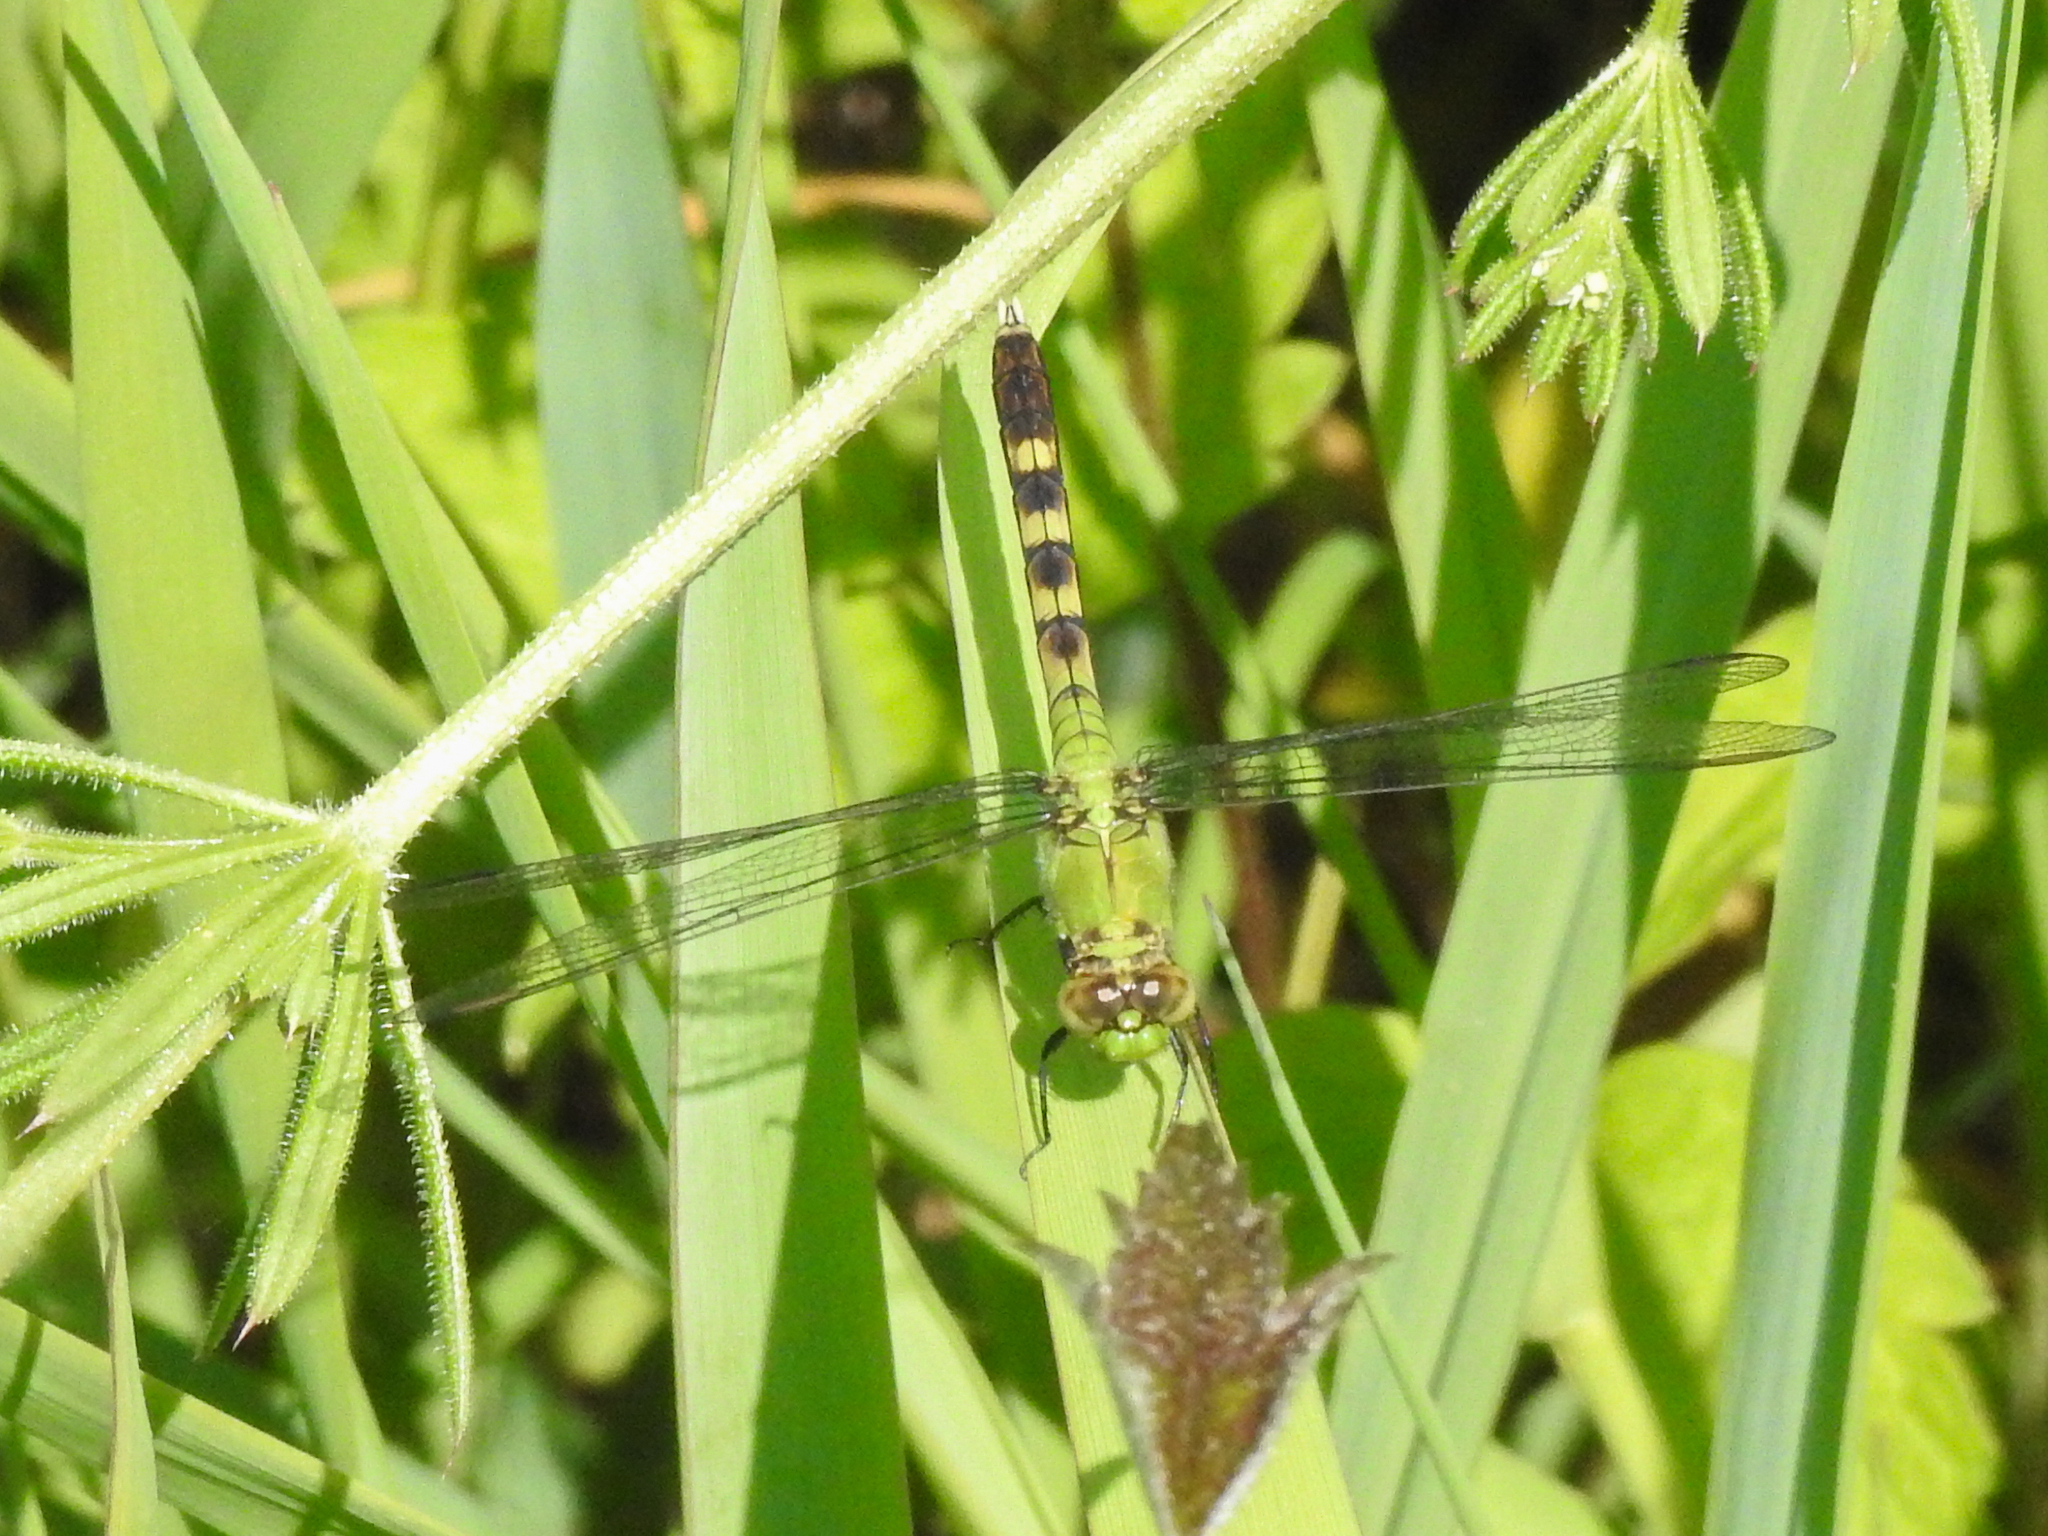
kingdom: Animalia
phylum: Arthropoda
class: Insecta
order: Odonata
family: Libellulidae
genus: Erythemis
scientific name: Erythemis simplicicollis
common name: Eastern pondhawk
